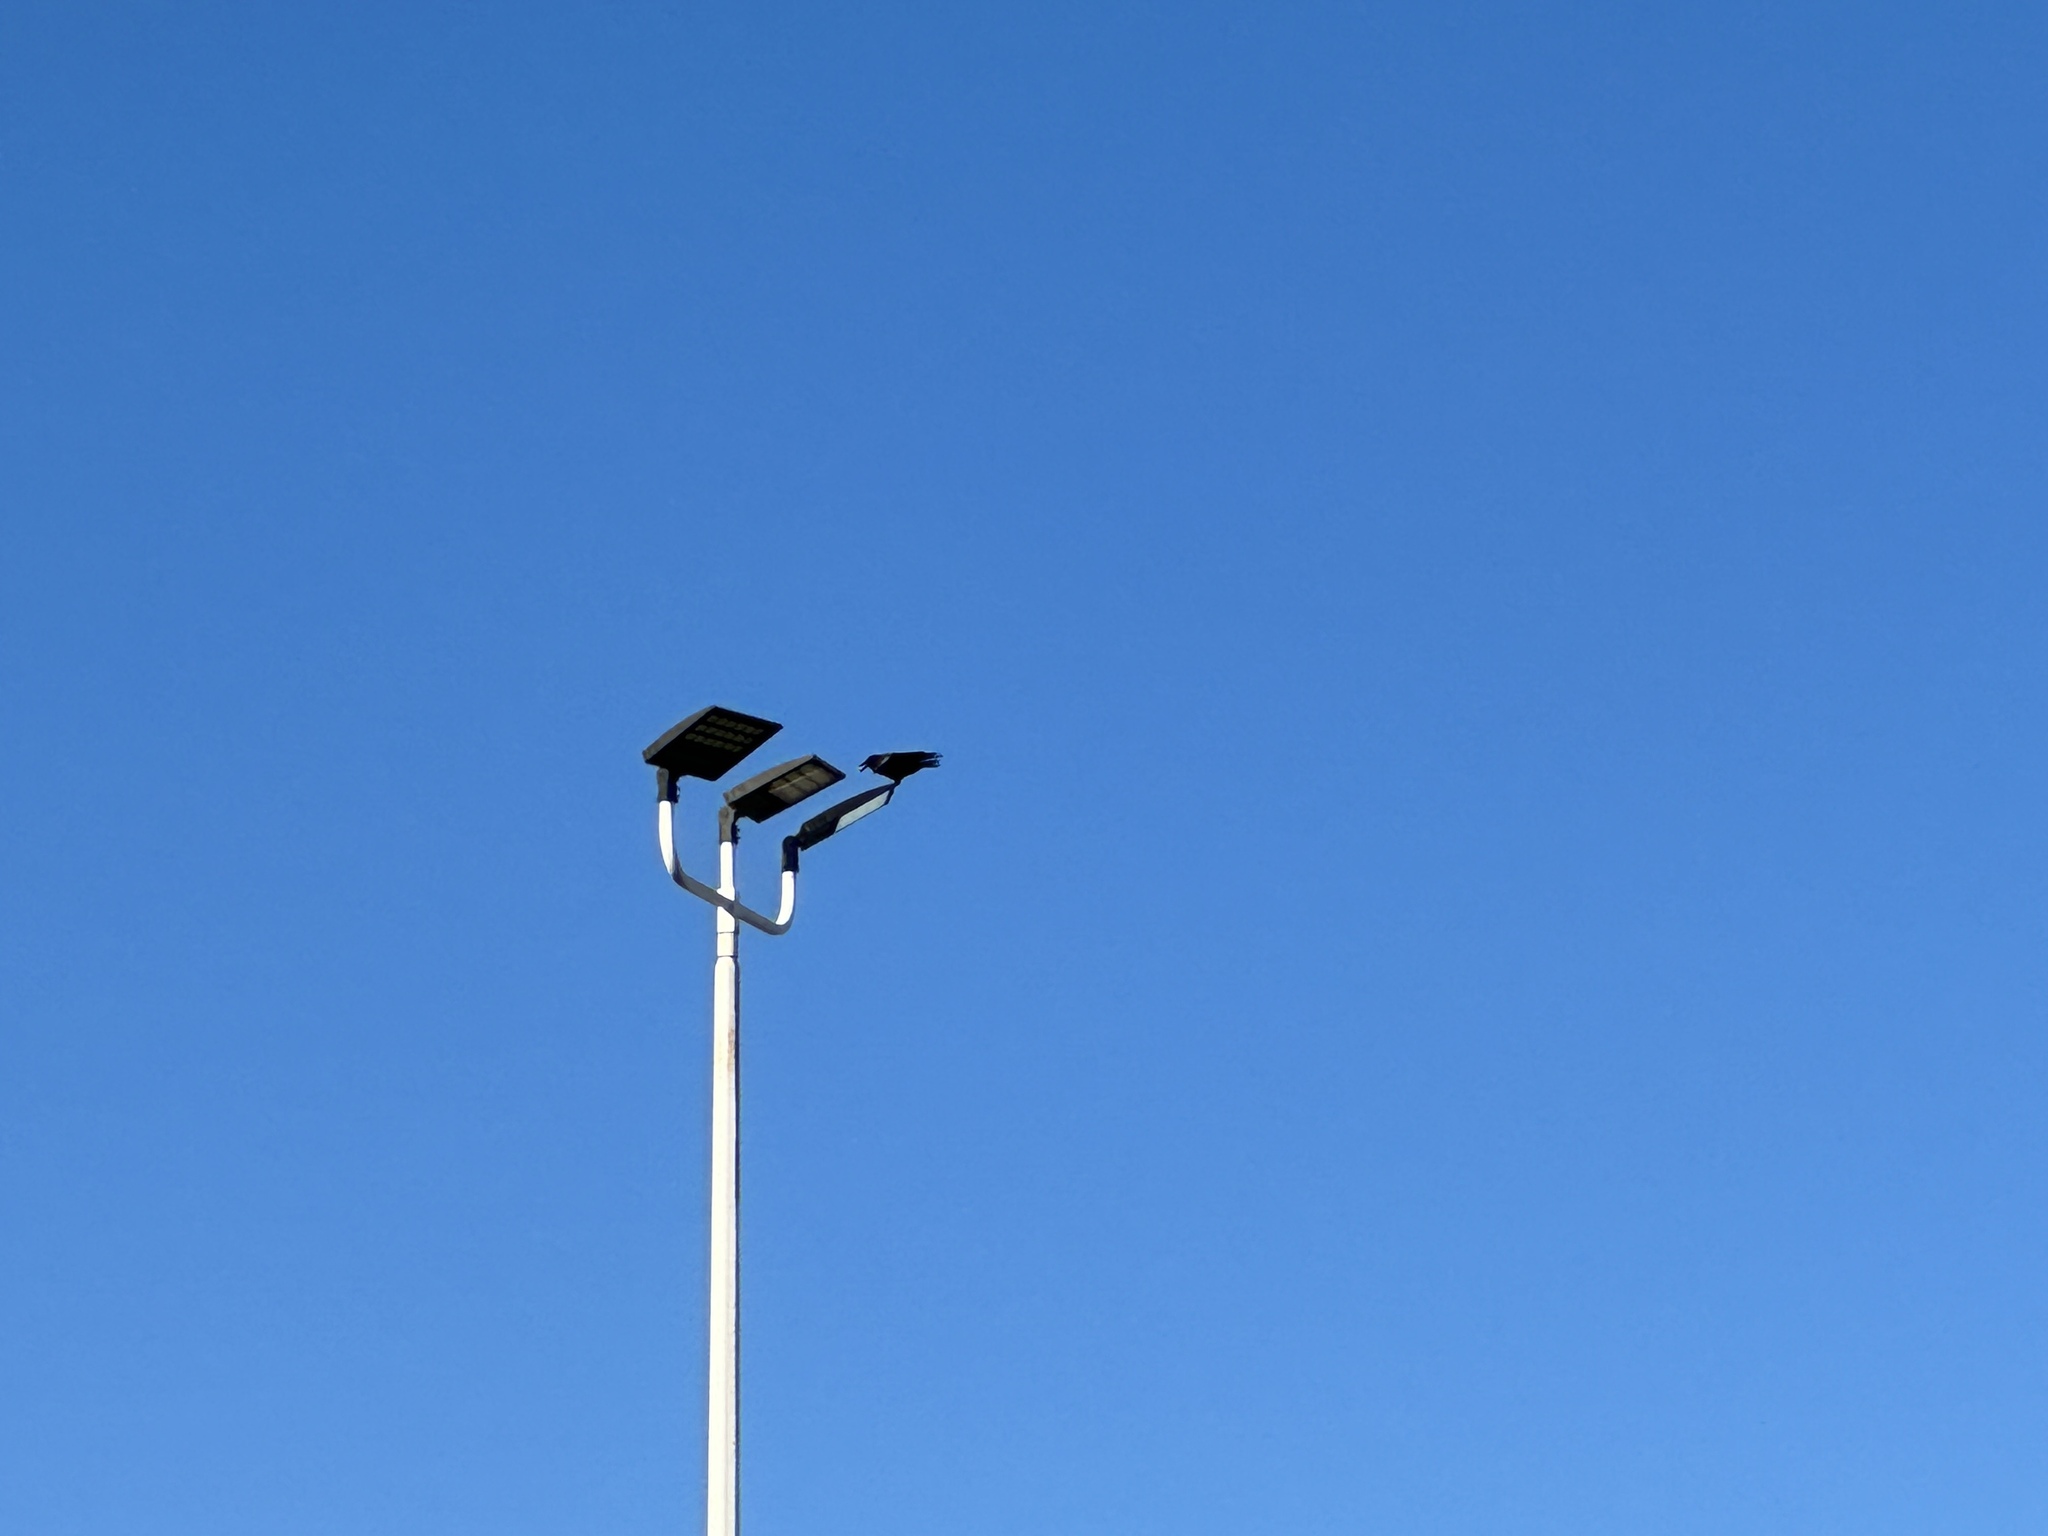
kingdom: Animalia
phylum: Chordata
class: Aves
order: Passeriformes
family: Corvidae
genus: Corvus
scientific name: Corvus brachyrhynchos
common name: American crow
